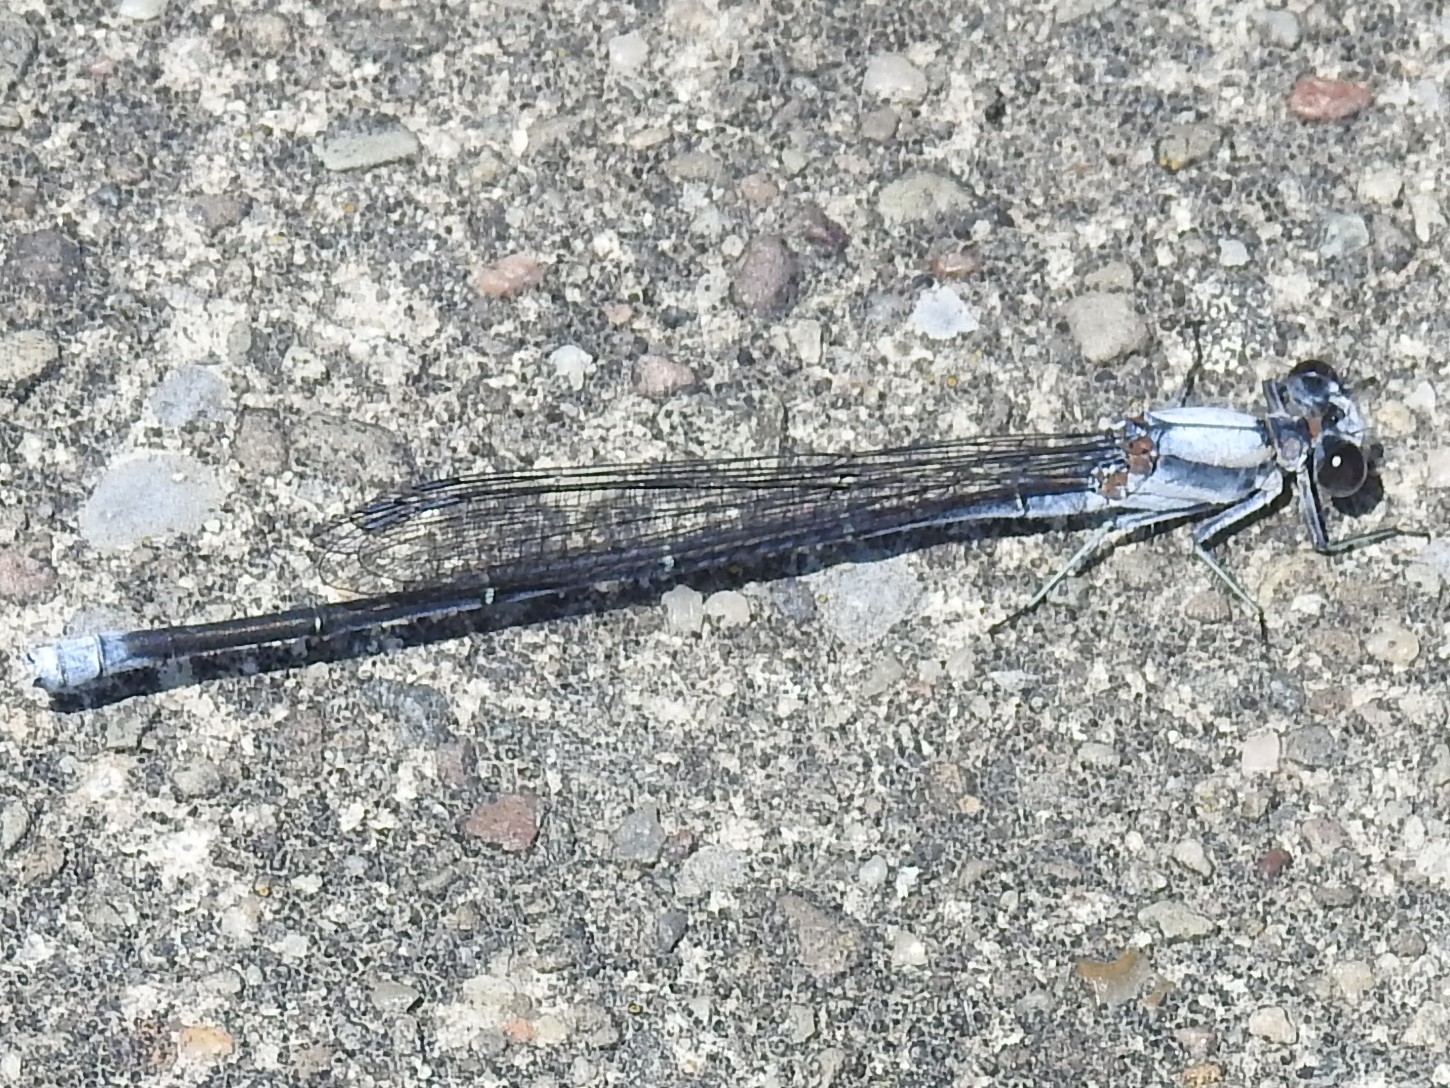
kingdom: Animalia
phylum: Arthropoda
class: Insecta
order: Odonata
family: Coenagrionidae
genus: Argia
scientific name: Argia moesta
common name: Powdered dancer
